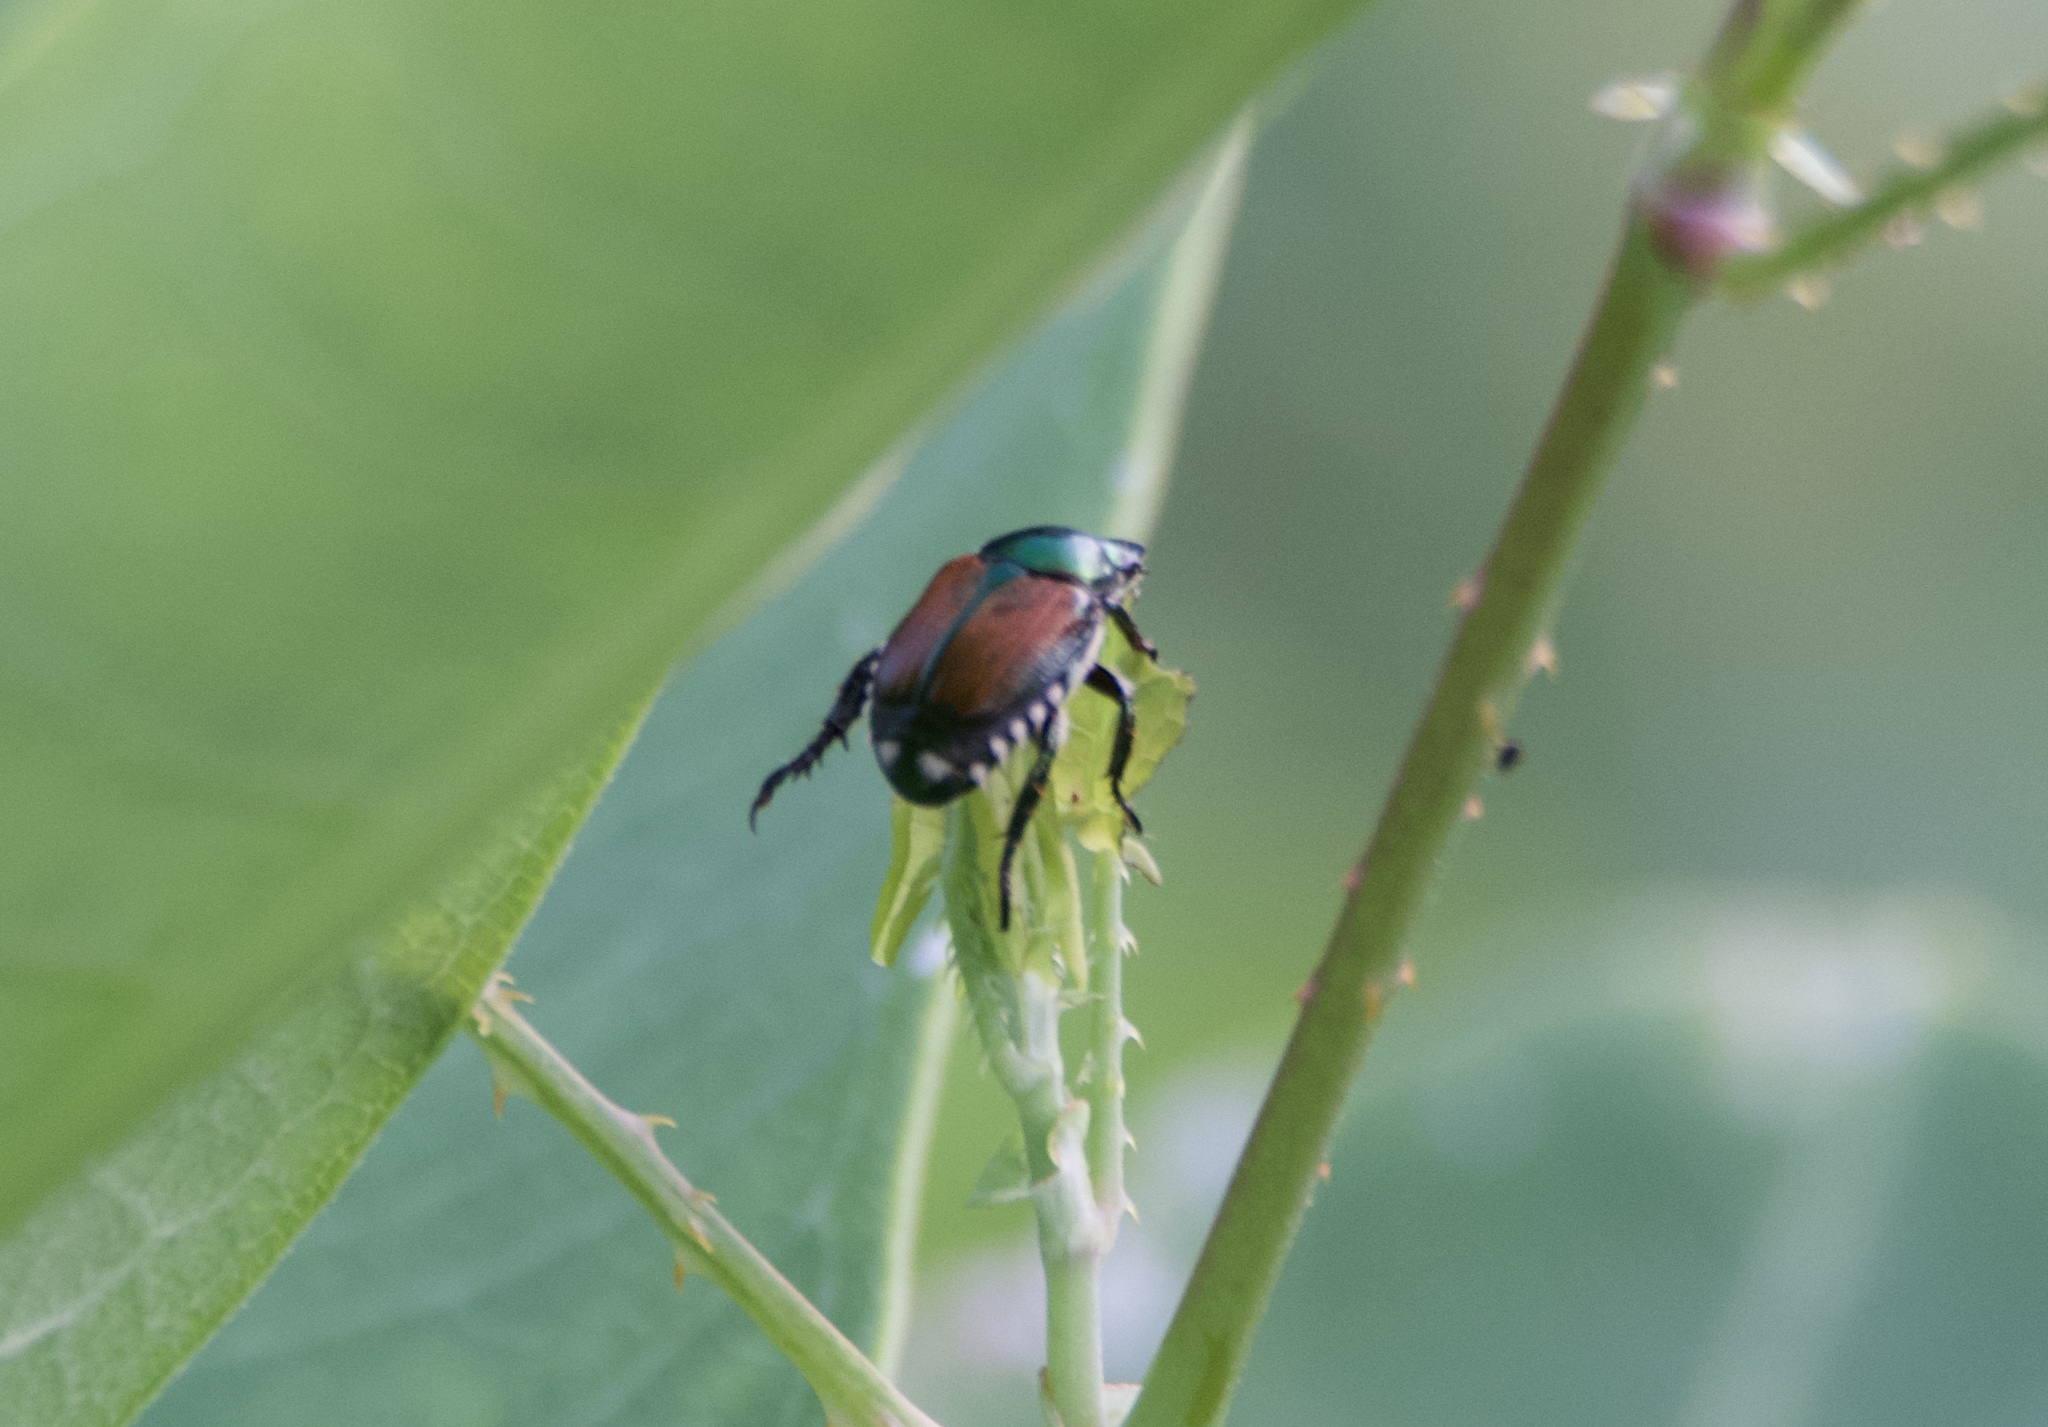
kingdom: Animalia
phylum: Arthropoda
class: Insecta
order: Coleoptera
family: Scarabaeidae
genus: Popillia
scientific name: Popillia japonica
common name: Japanese beetle
